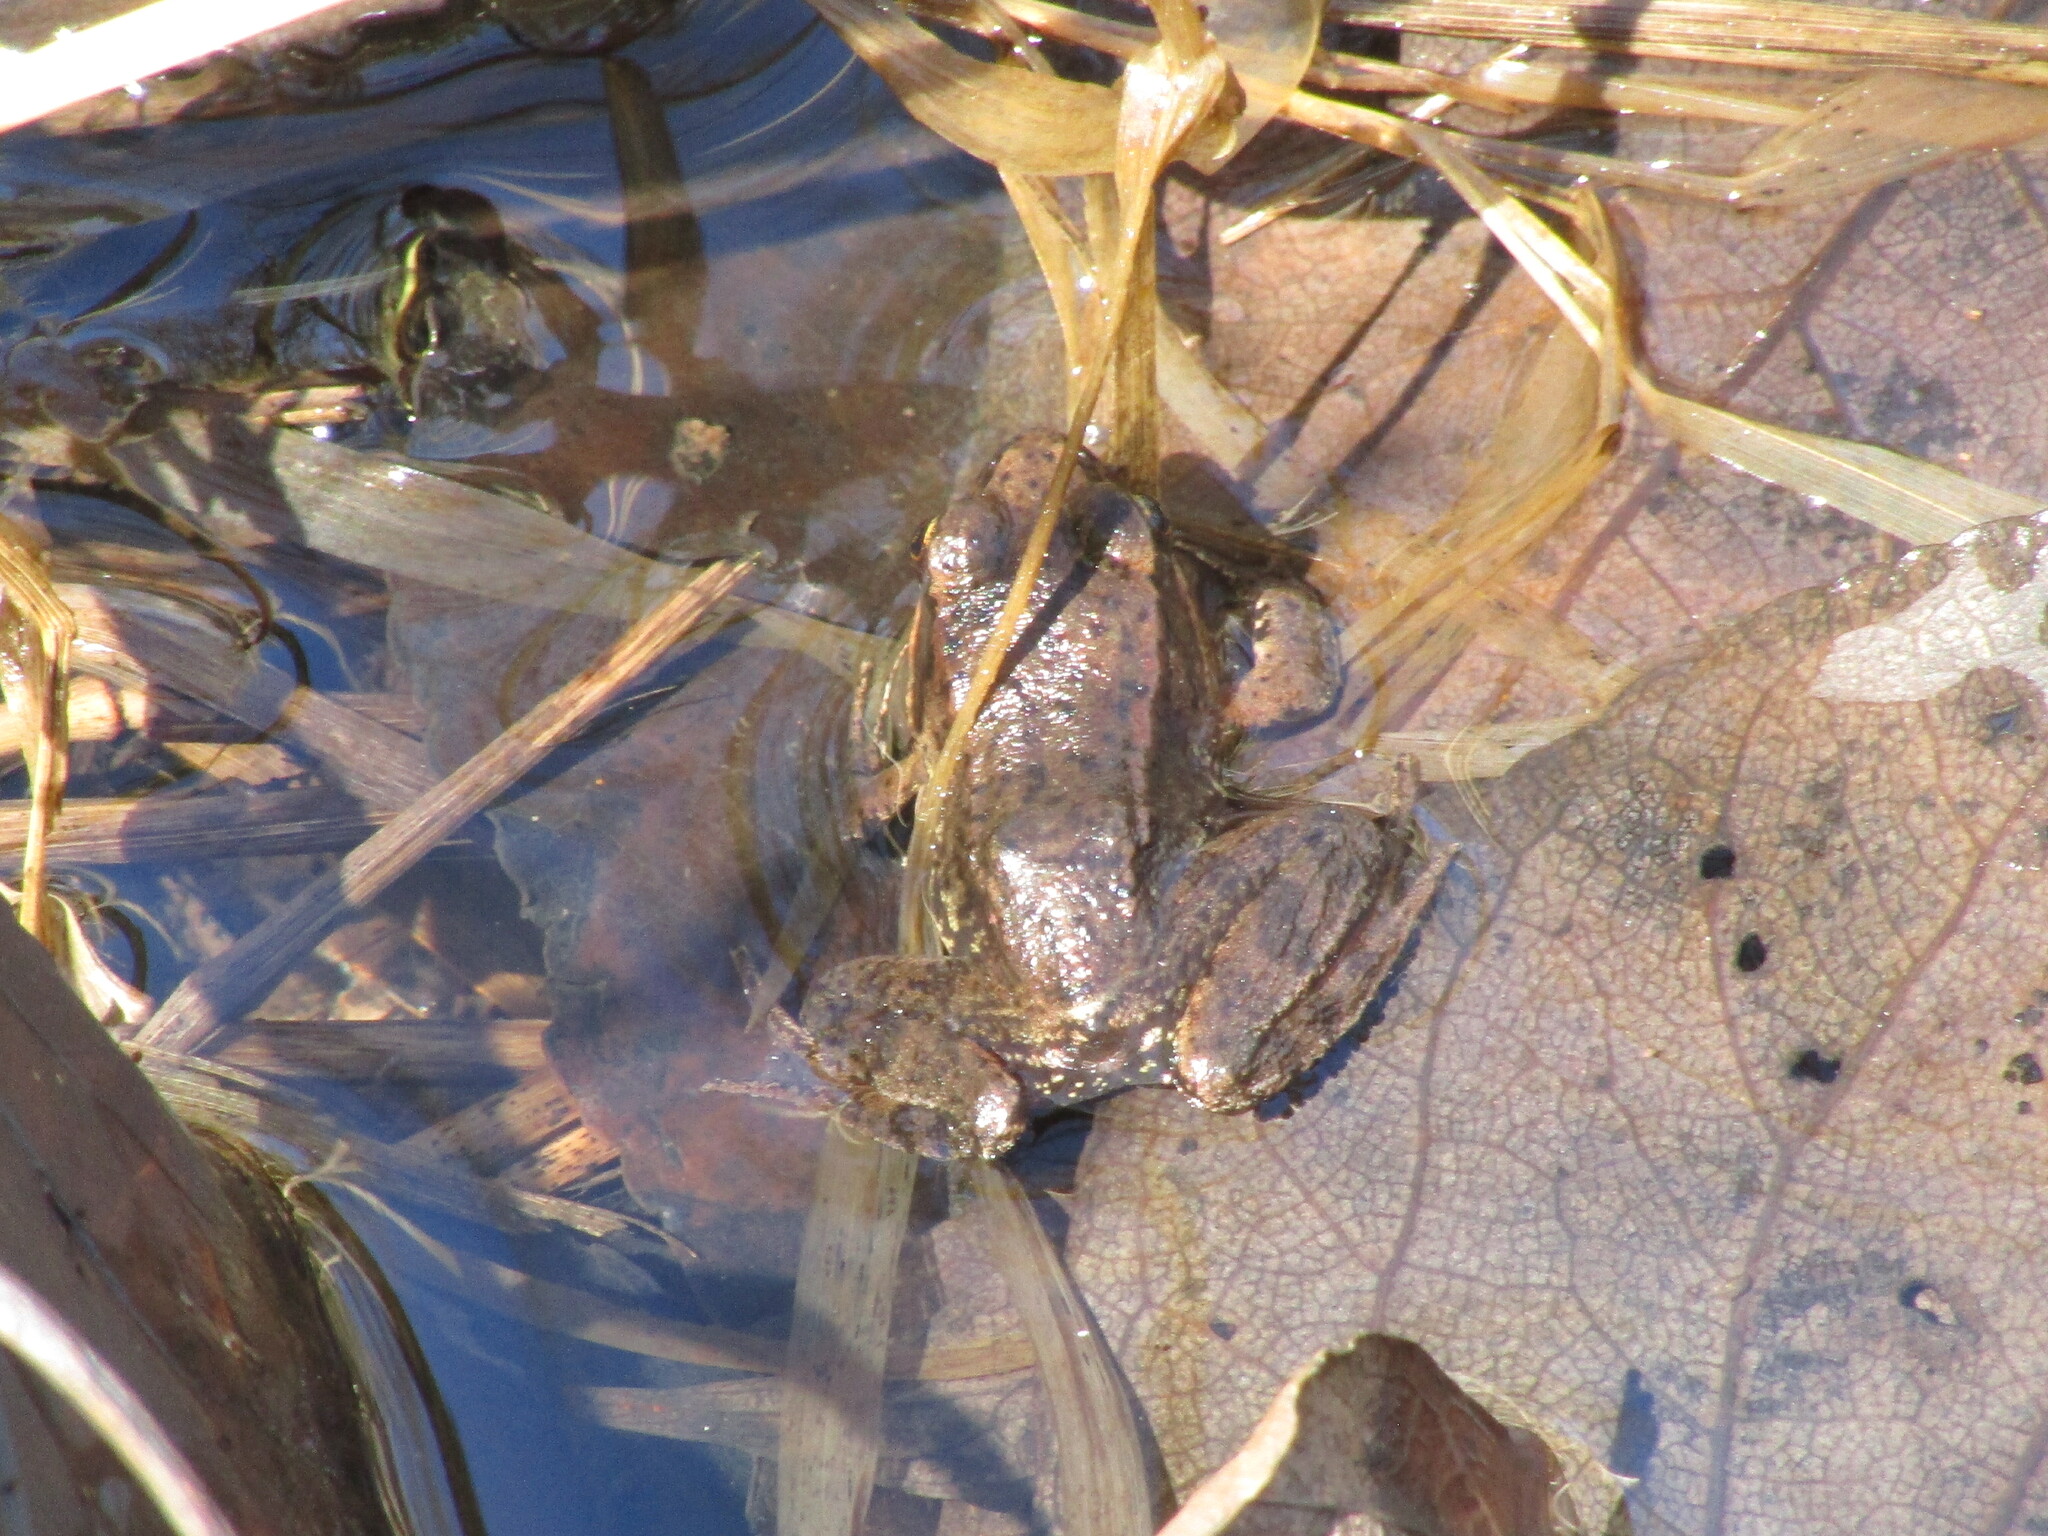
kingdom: Animalia
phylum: Chordata
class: Amphibia
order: Anura
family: Ranidae
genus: Rana
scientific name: Rana aurora
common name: Red-legged frog
